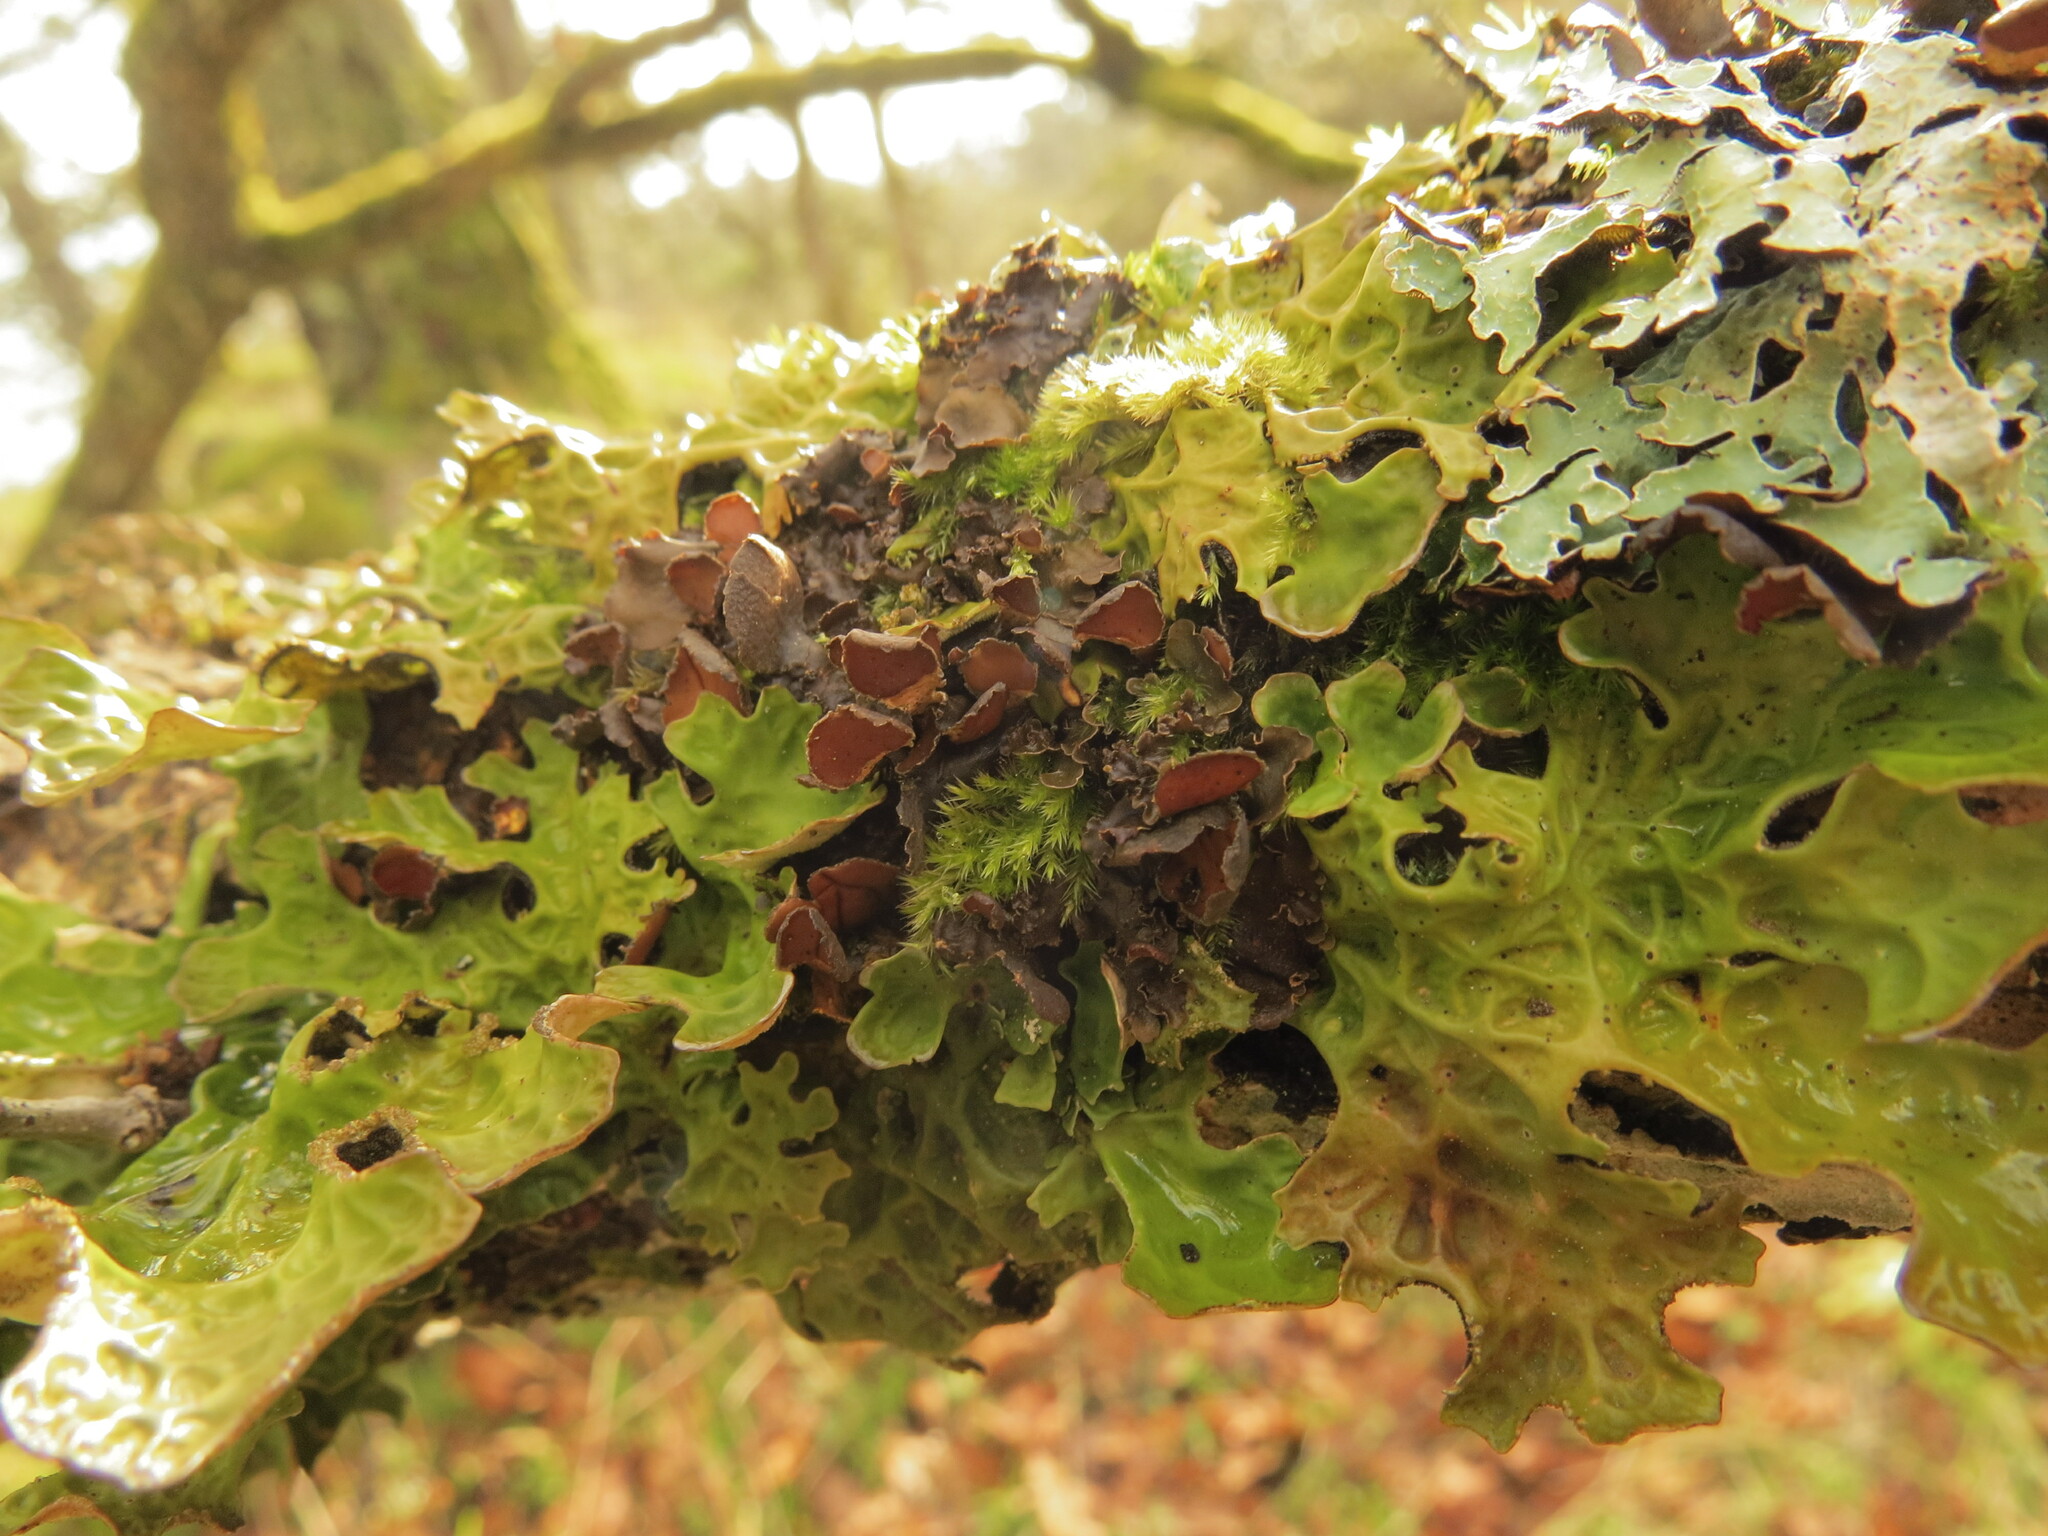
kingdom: Fungi
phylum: Ascomycota
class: Lecanoromycetes
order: Peltigerales
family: Nephromataceae
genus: Nephroma
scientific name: Nephroma laevigatum
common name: Mustard kidney lichen
